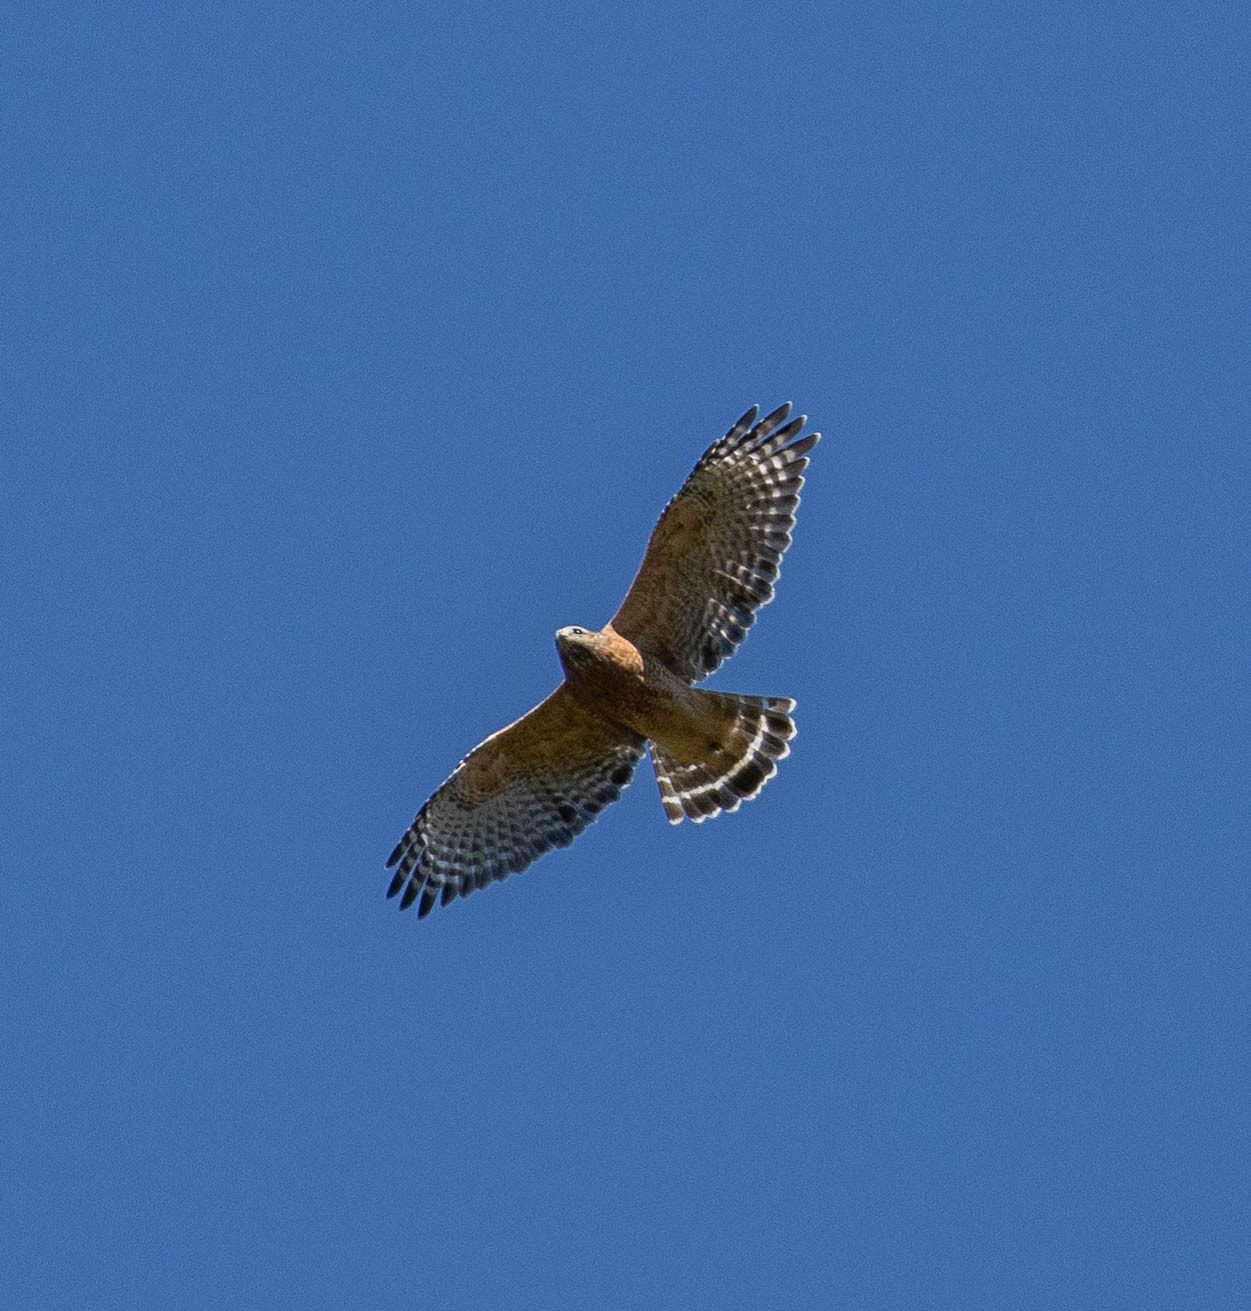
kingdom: Animalia
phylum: Chordata
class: Aves
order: Accipitriformes
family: Accipitridae
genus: Buteo
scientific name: Buteo lineatus
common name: Red-shouldered hawk
